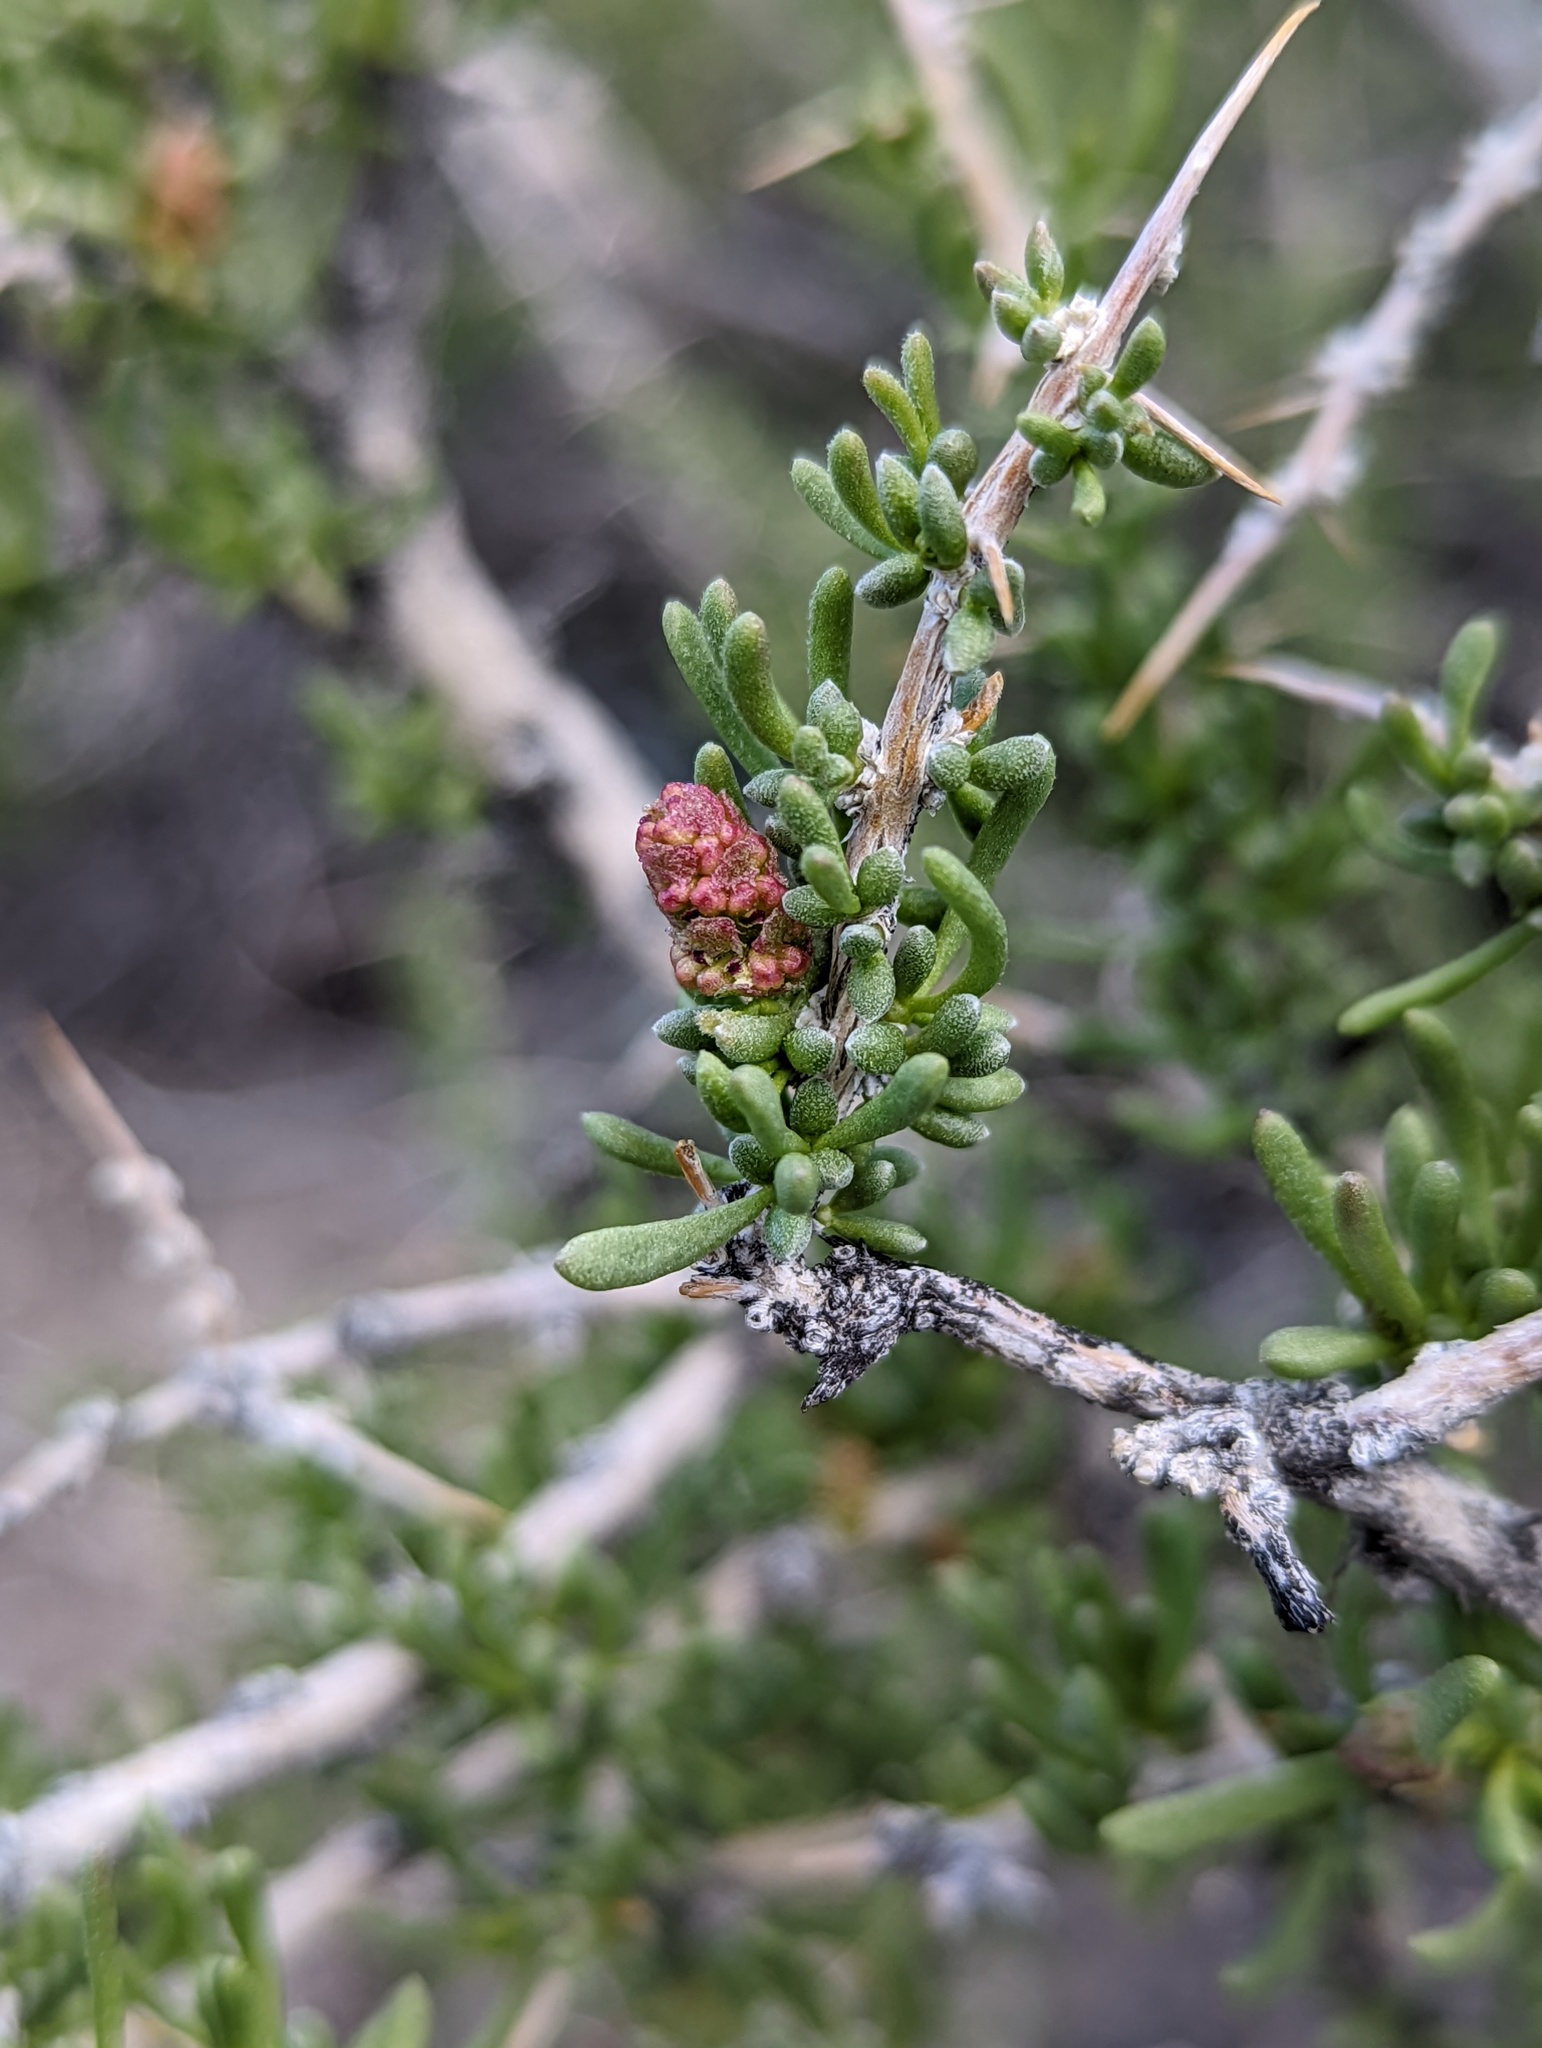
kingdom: Plantae
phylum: Tracheophyta
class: Magnoliopsida
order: Caryophyllales
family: Sarcobataceae
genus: Sarcobatus
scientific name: Sarcobatus baileyi
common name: Bailey greasewood
